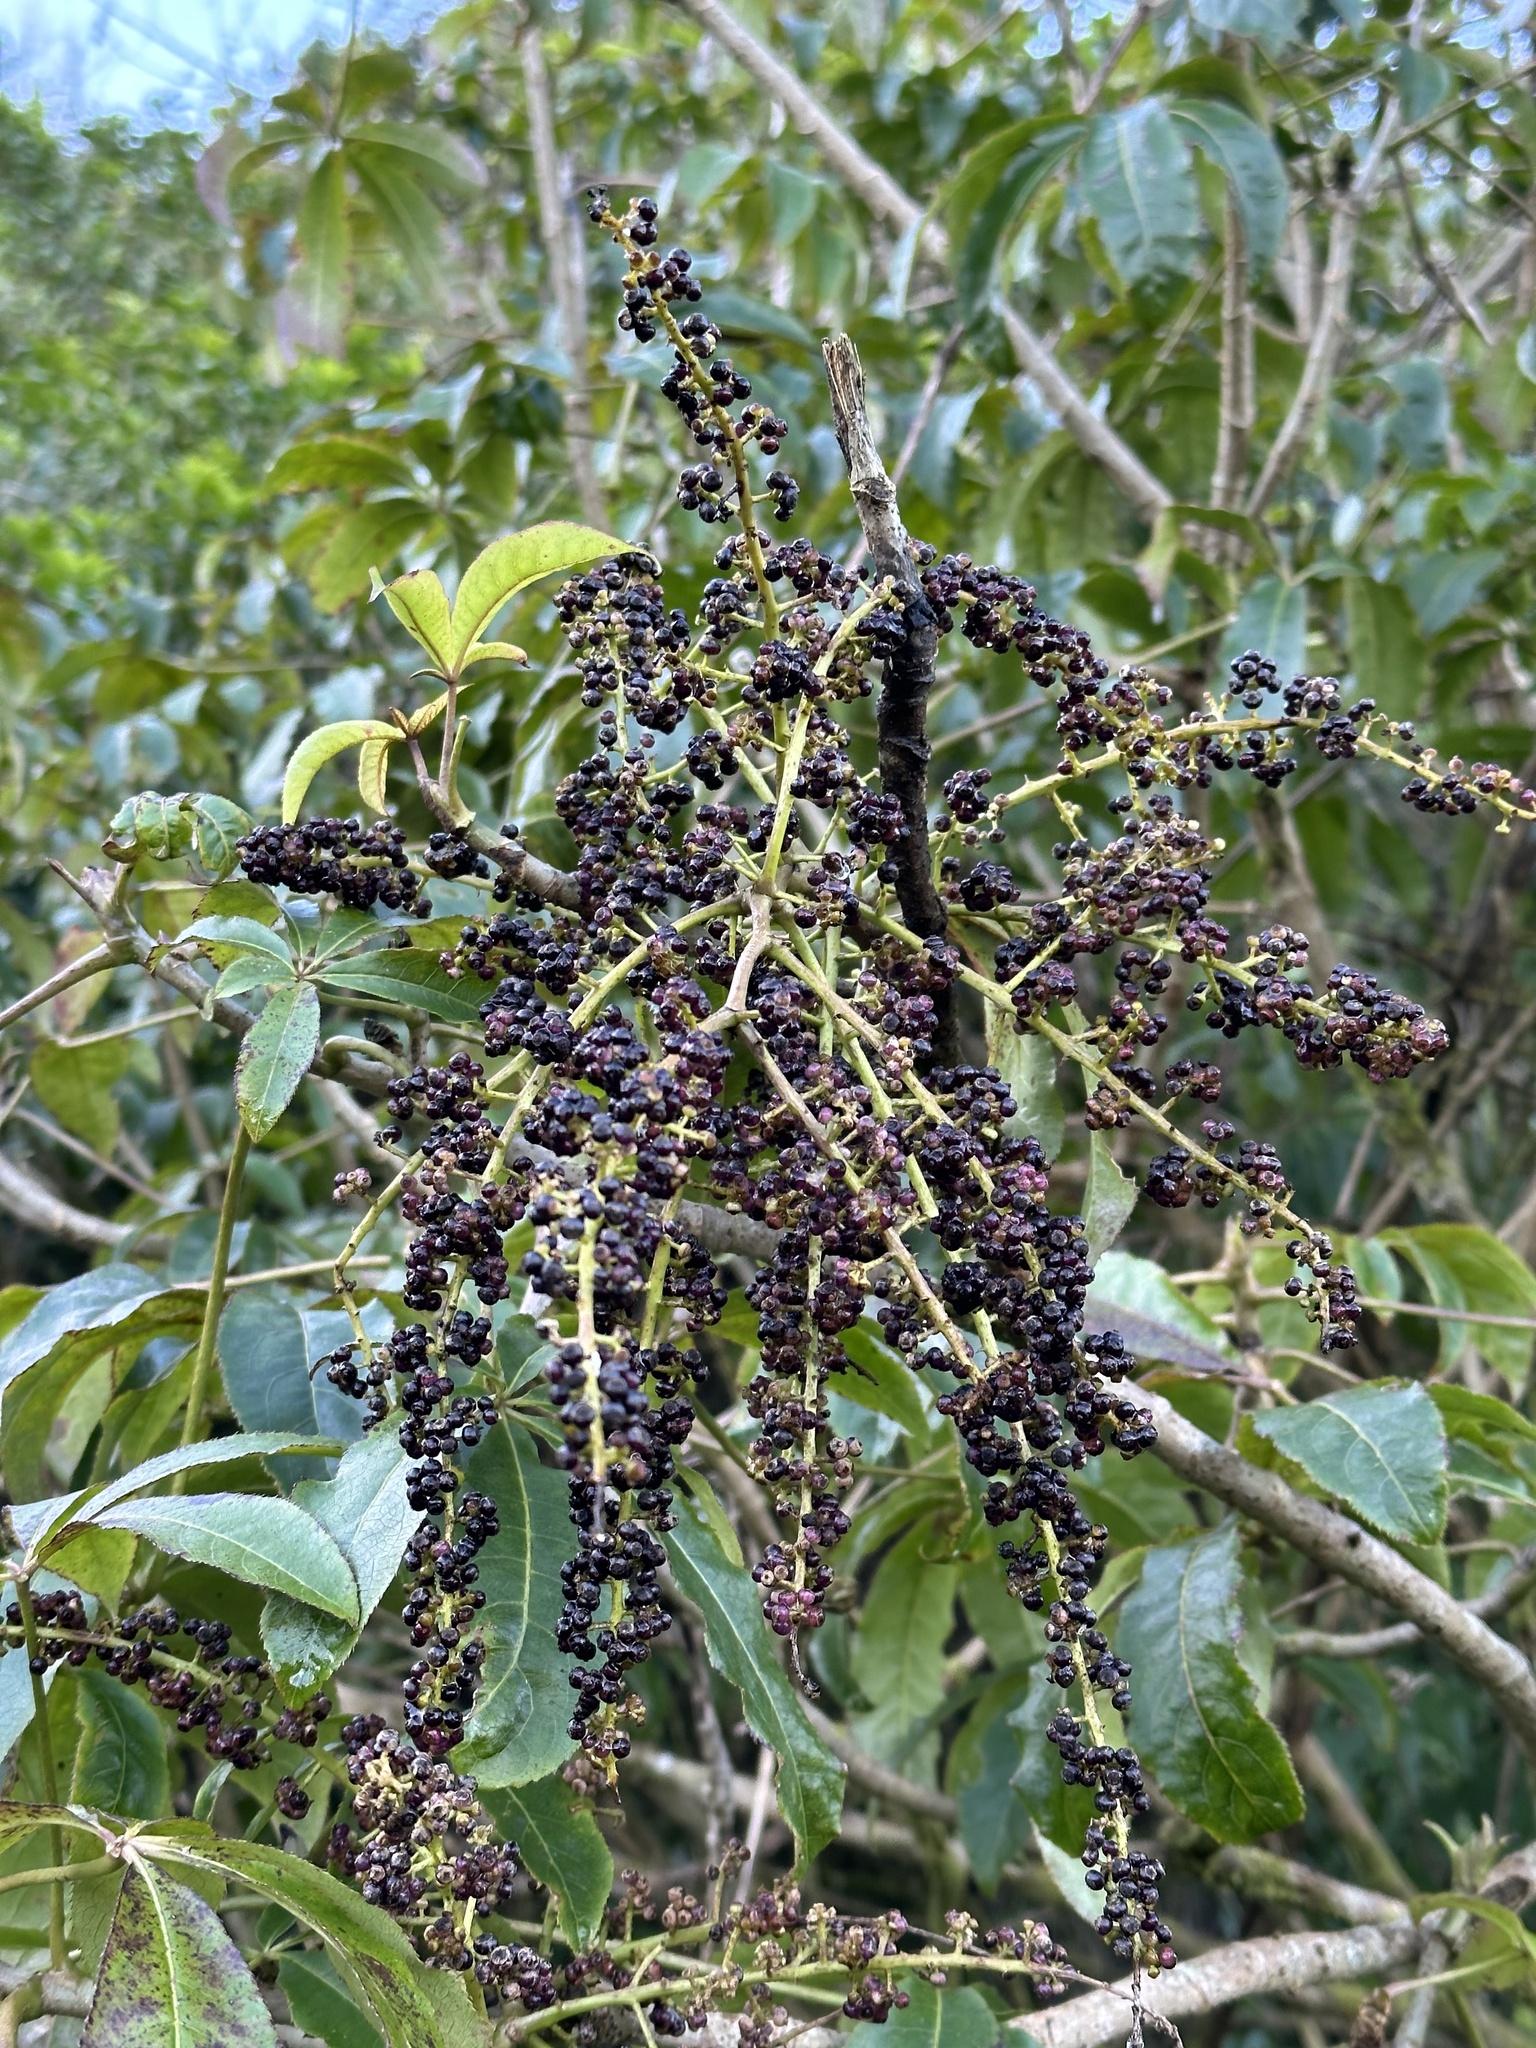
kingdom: Plantae
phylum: Tracheophyta
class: Magnoliopsida
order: Apiales
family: Araliaceae
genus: Schefflera
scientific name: Schefflera digitata
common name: Pate
